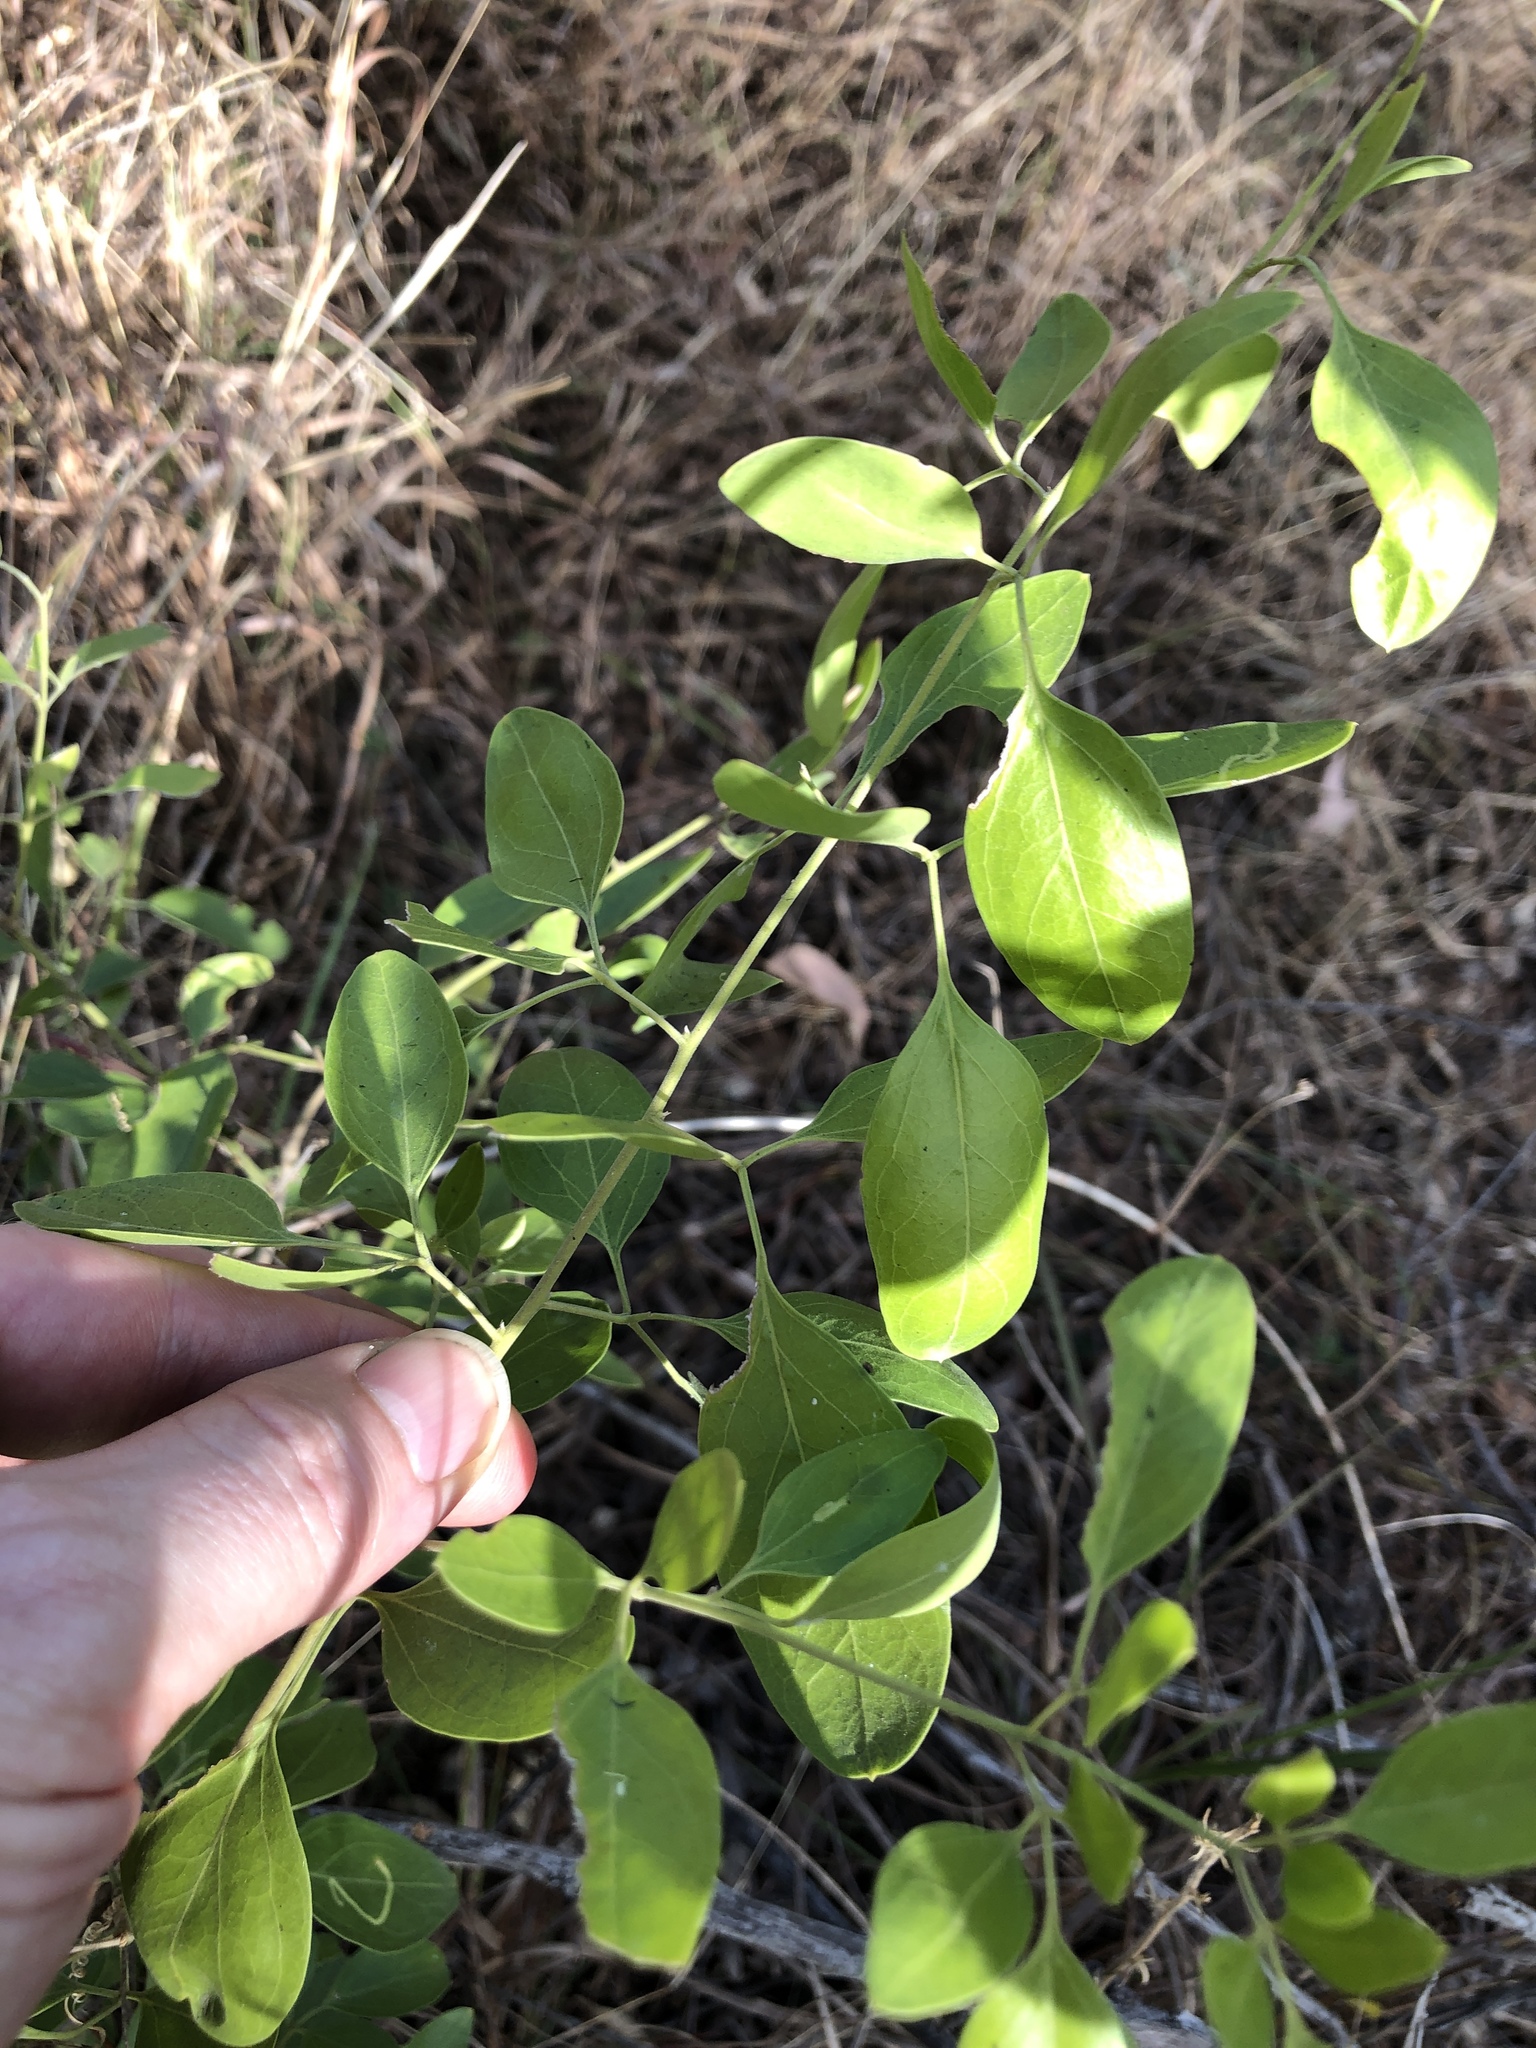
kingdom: Plantae
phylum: Tracheophyta
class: Magnoliopsida
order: Lamiales
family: Oleaceae
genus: Jasminum
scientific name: Jasminum didymum
